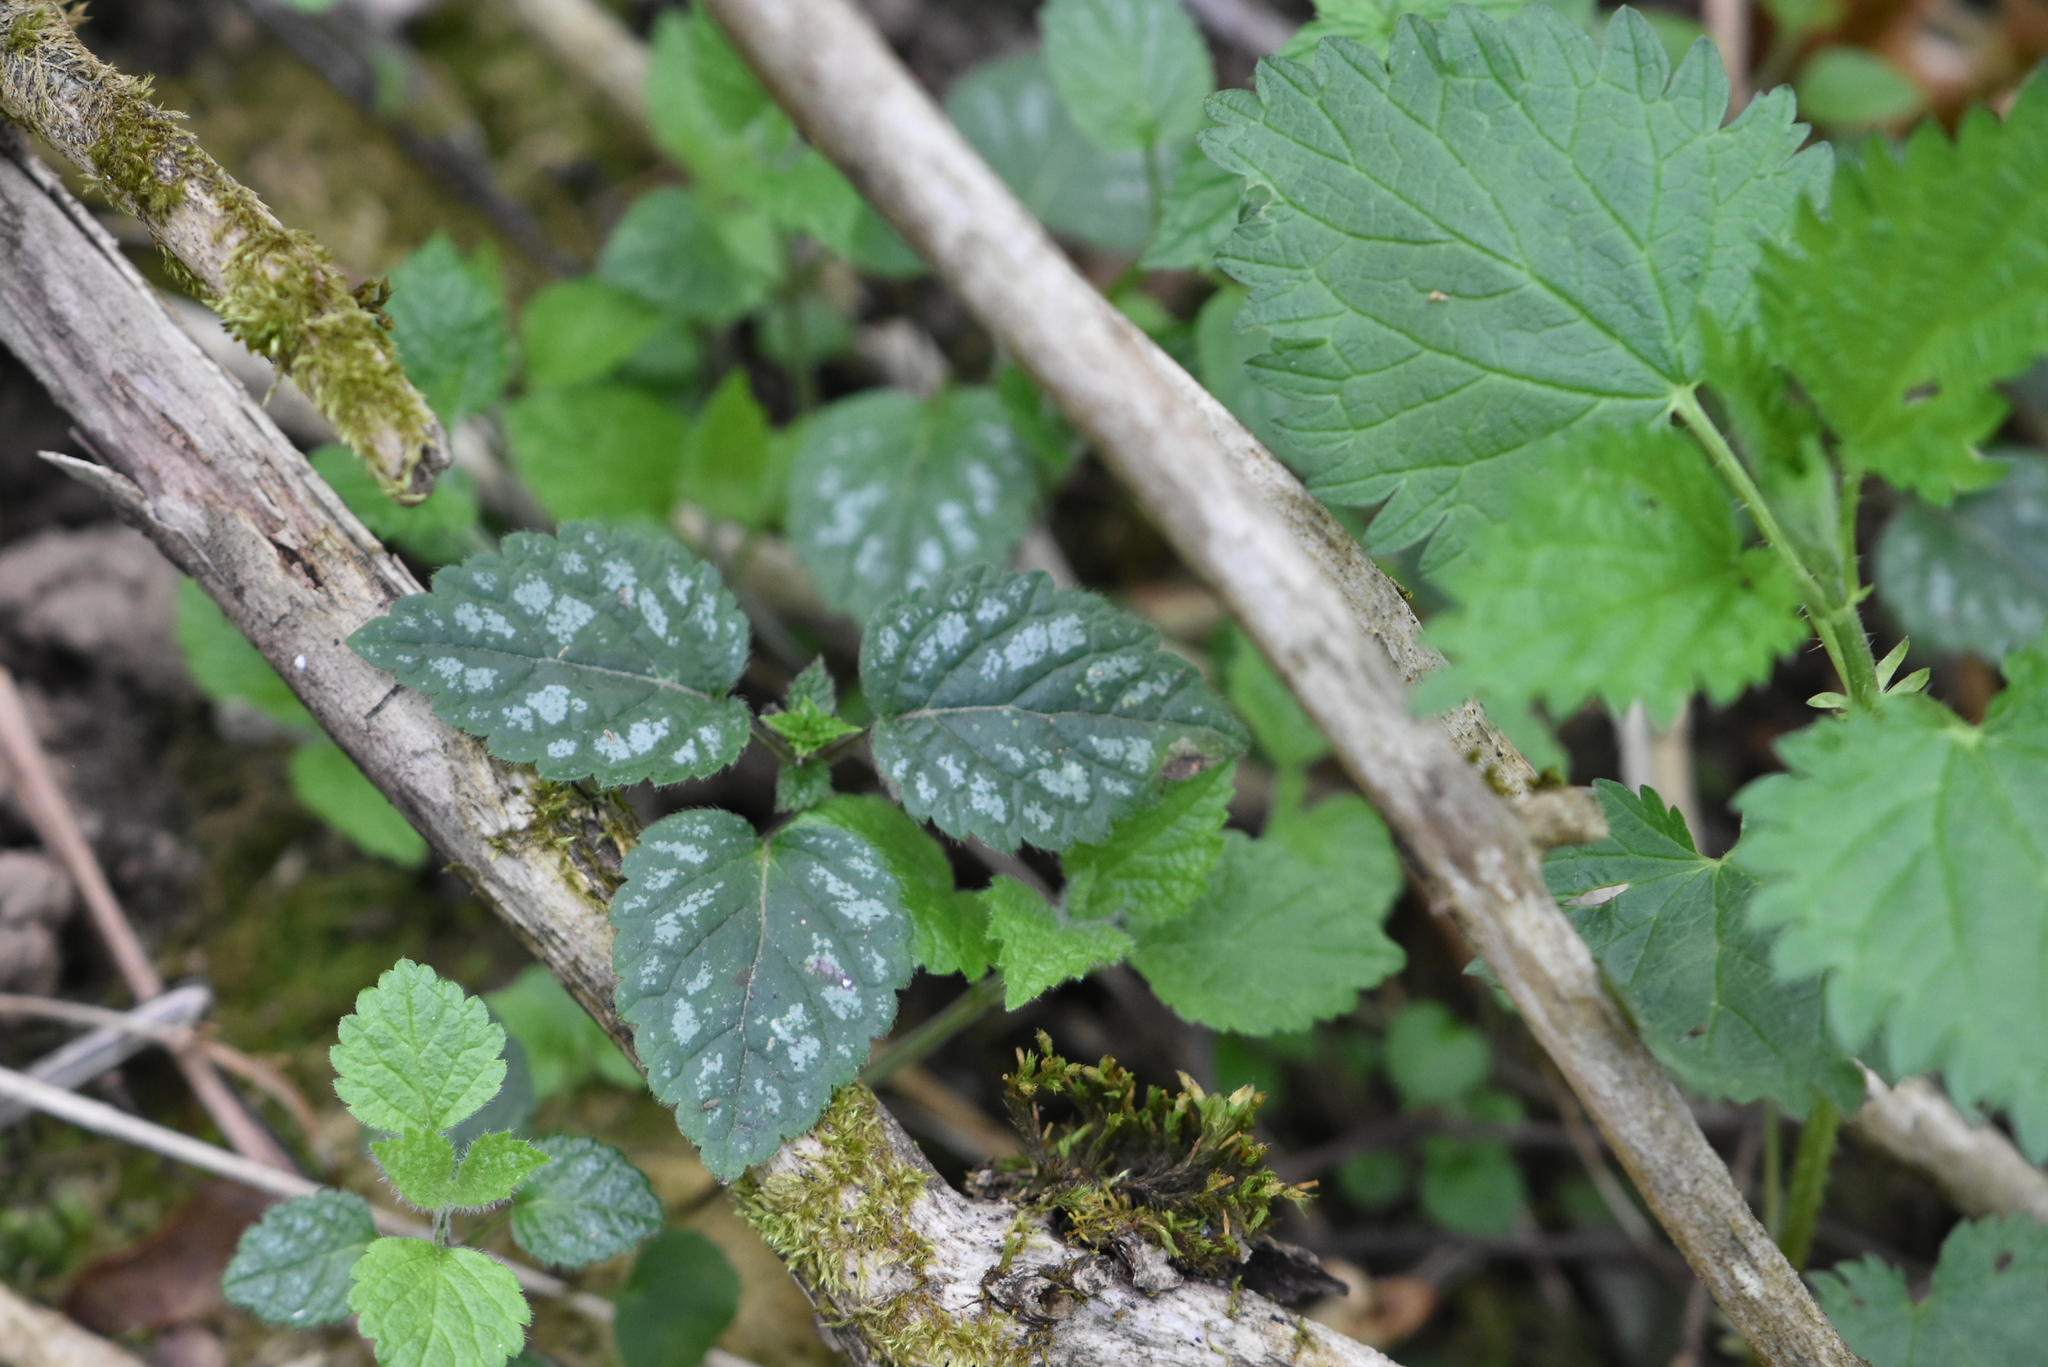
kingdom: Plantae
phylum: Tracheophyta
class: Magnoliopsida
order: Lamiales
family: Lamiaceae
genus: Lamium
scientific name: Lamium galeobdolon
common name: Yellow archangel
